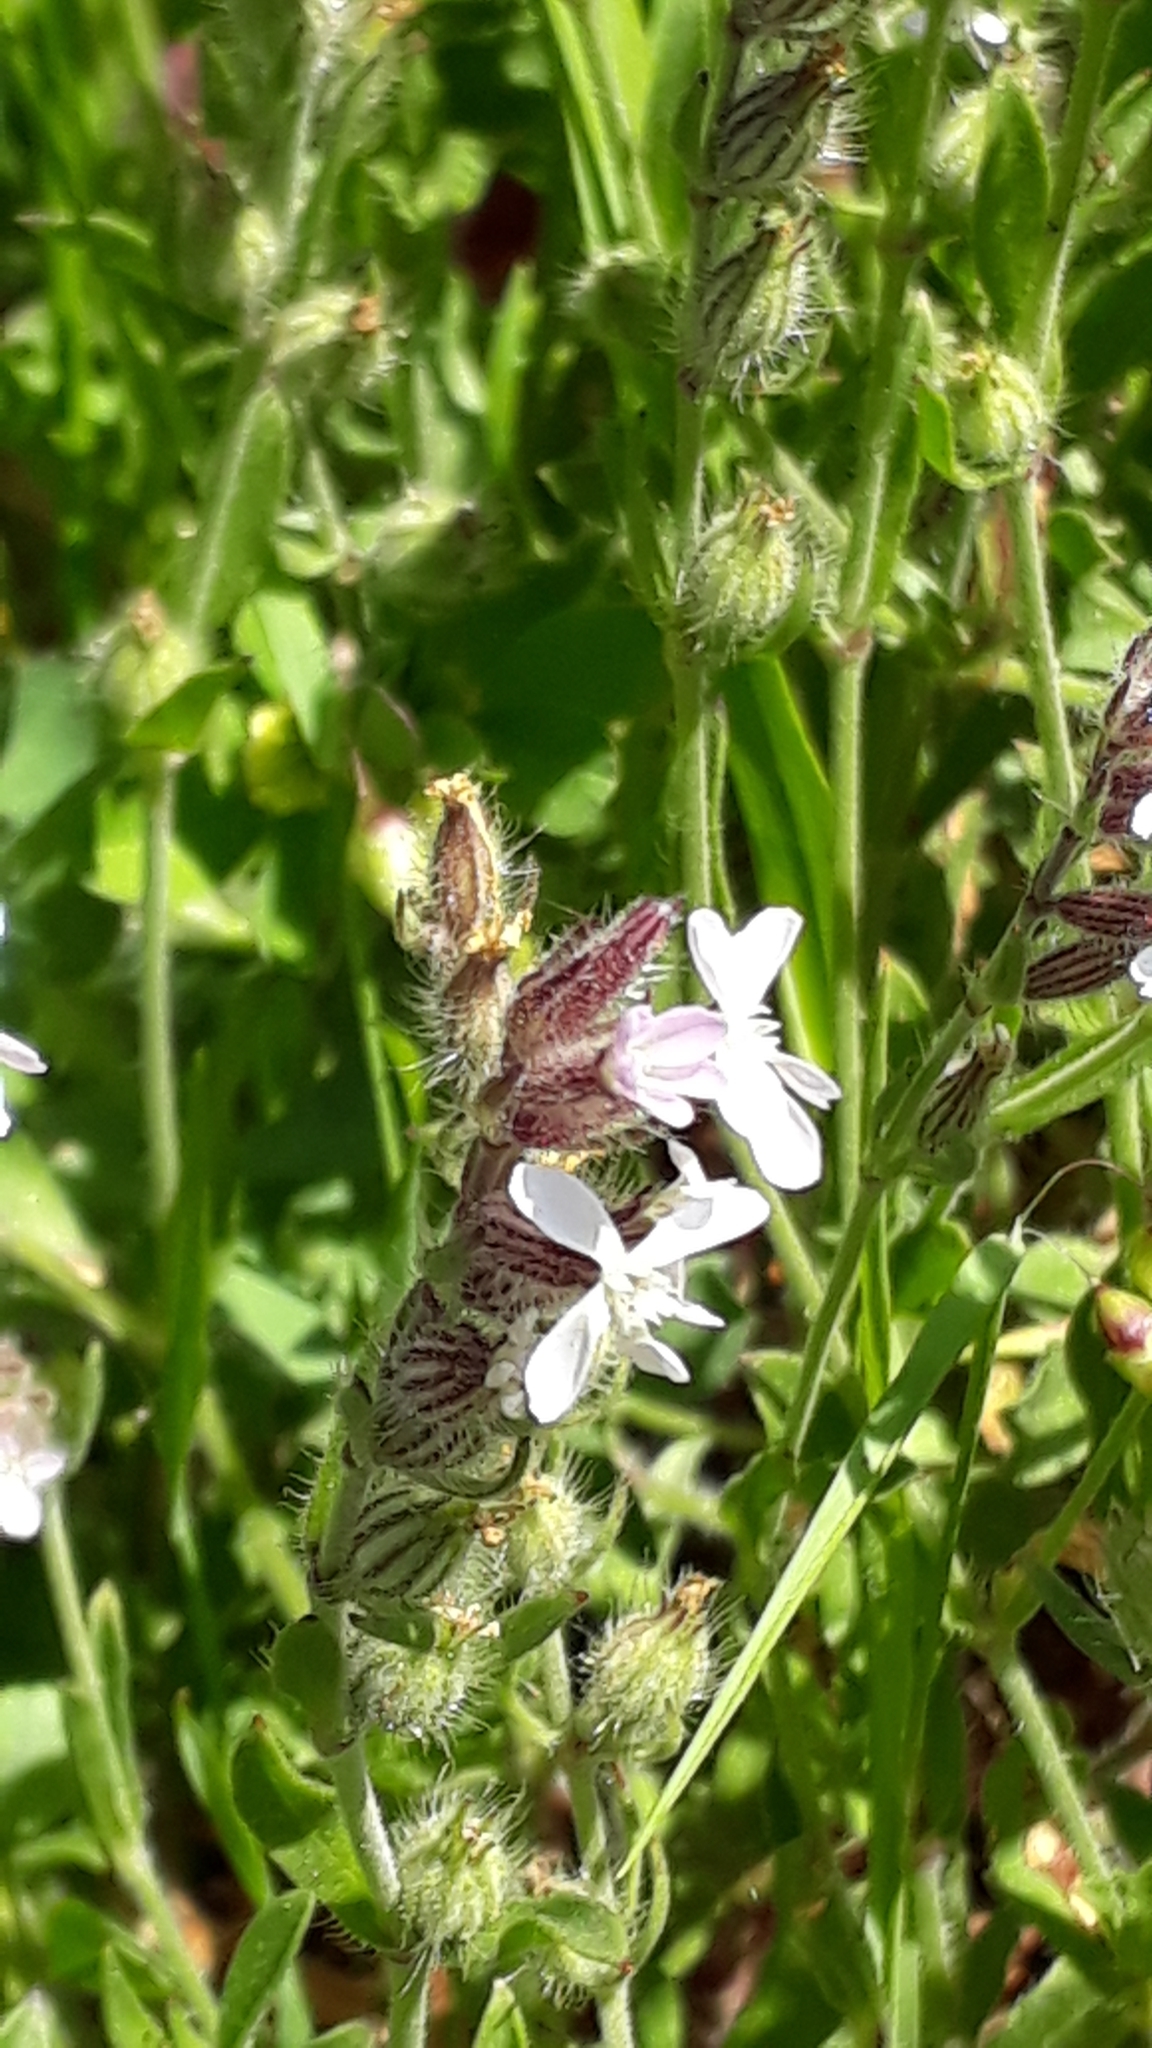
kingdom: Plantae
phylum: Tracheophyta
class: Magnoliopsida
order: Caryophyllales
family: Caryophyllaceae
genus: Silene
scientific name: Silene gallica
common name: Small-flowered catchfly
